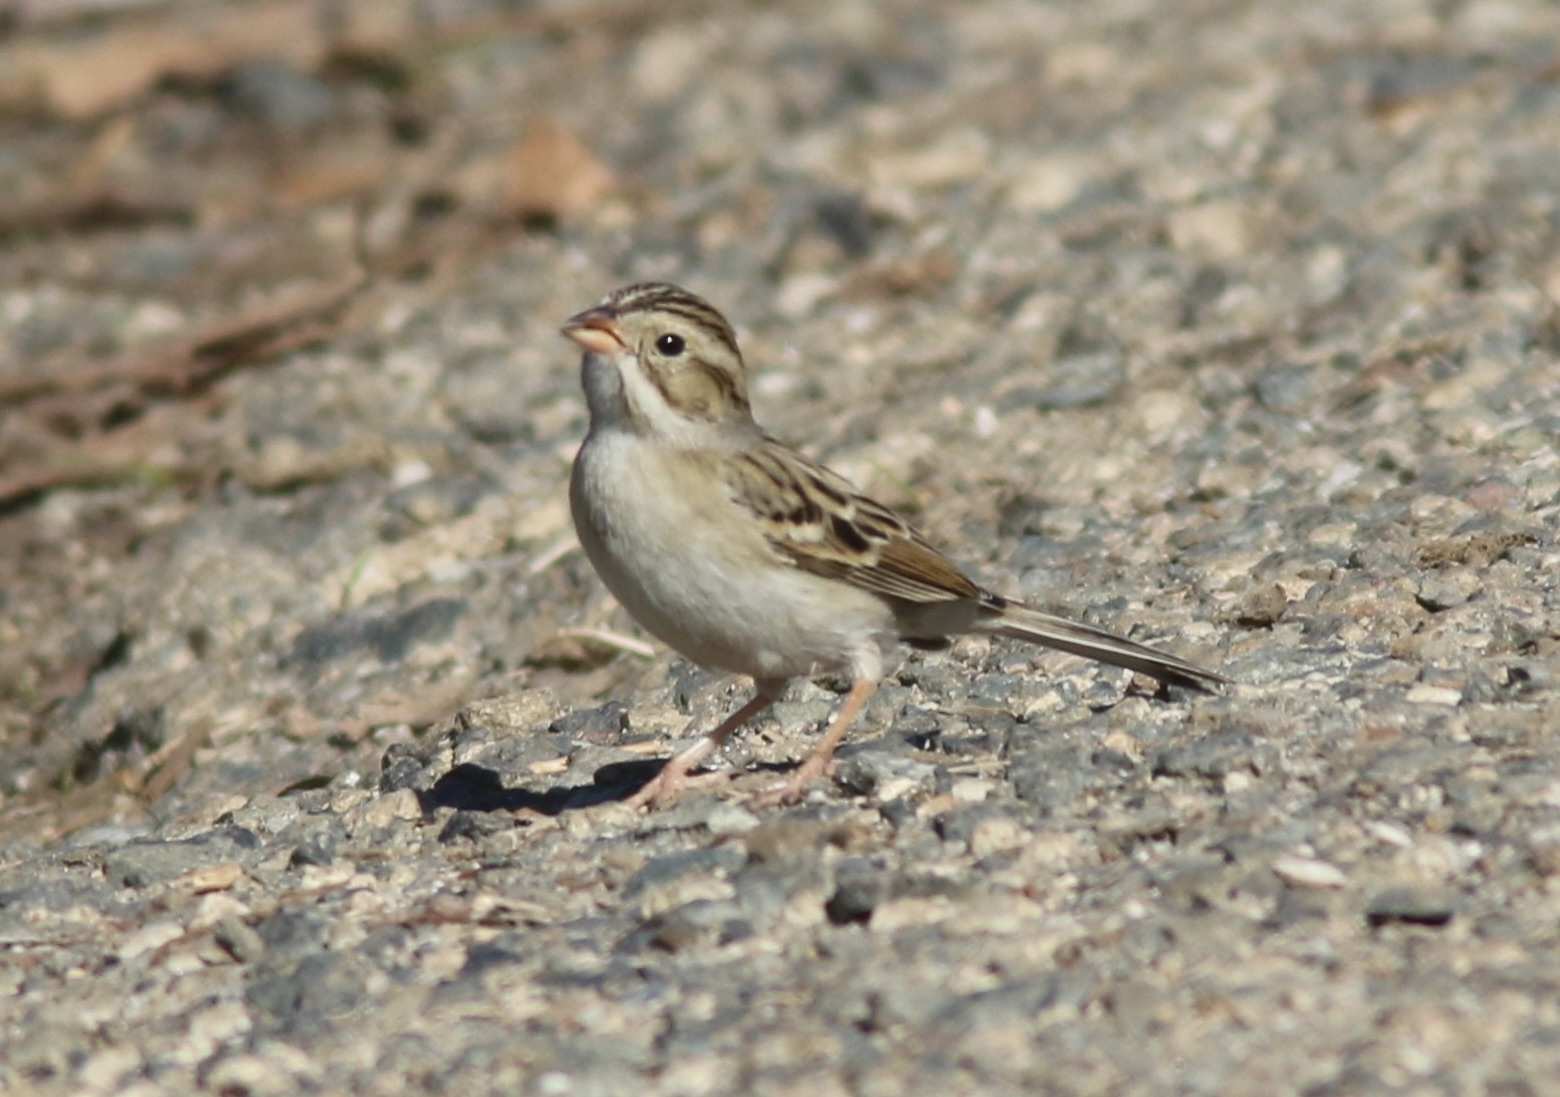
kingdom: Animalia
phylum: Chordata
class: Aves
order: Passeriformes
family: Passerellidae
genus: Spizella
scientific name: Spizella pallida
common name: Clay-colored sparrow
